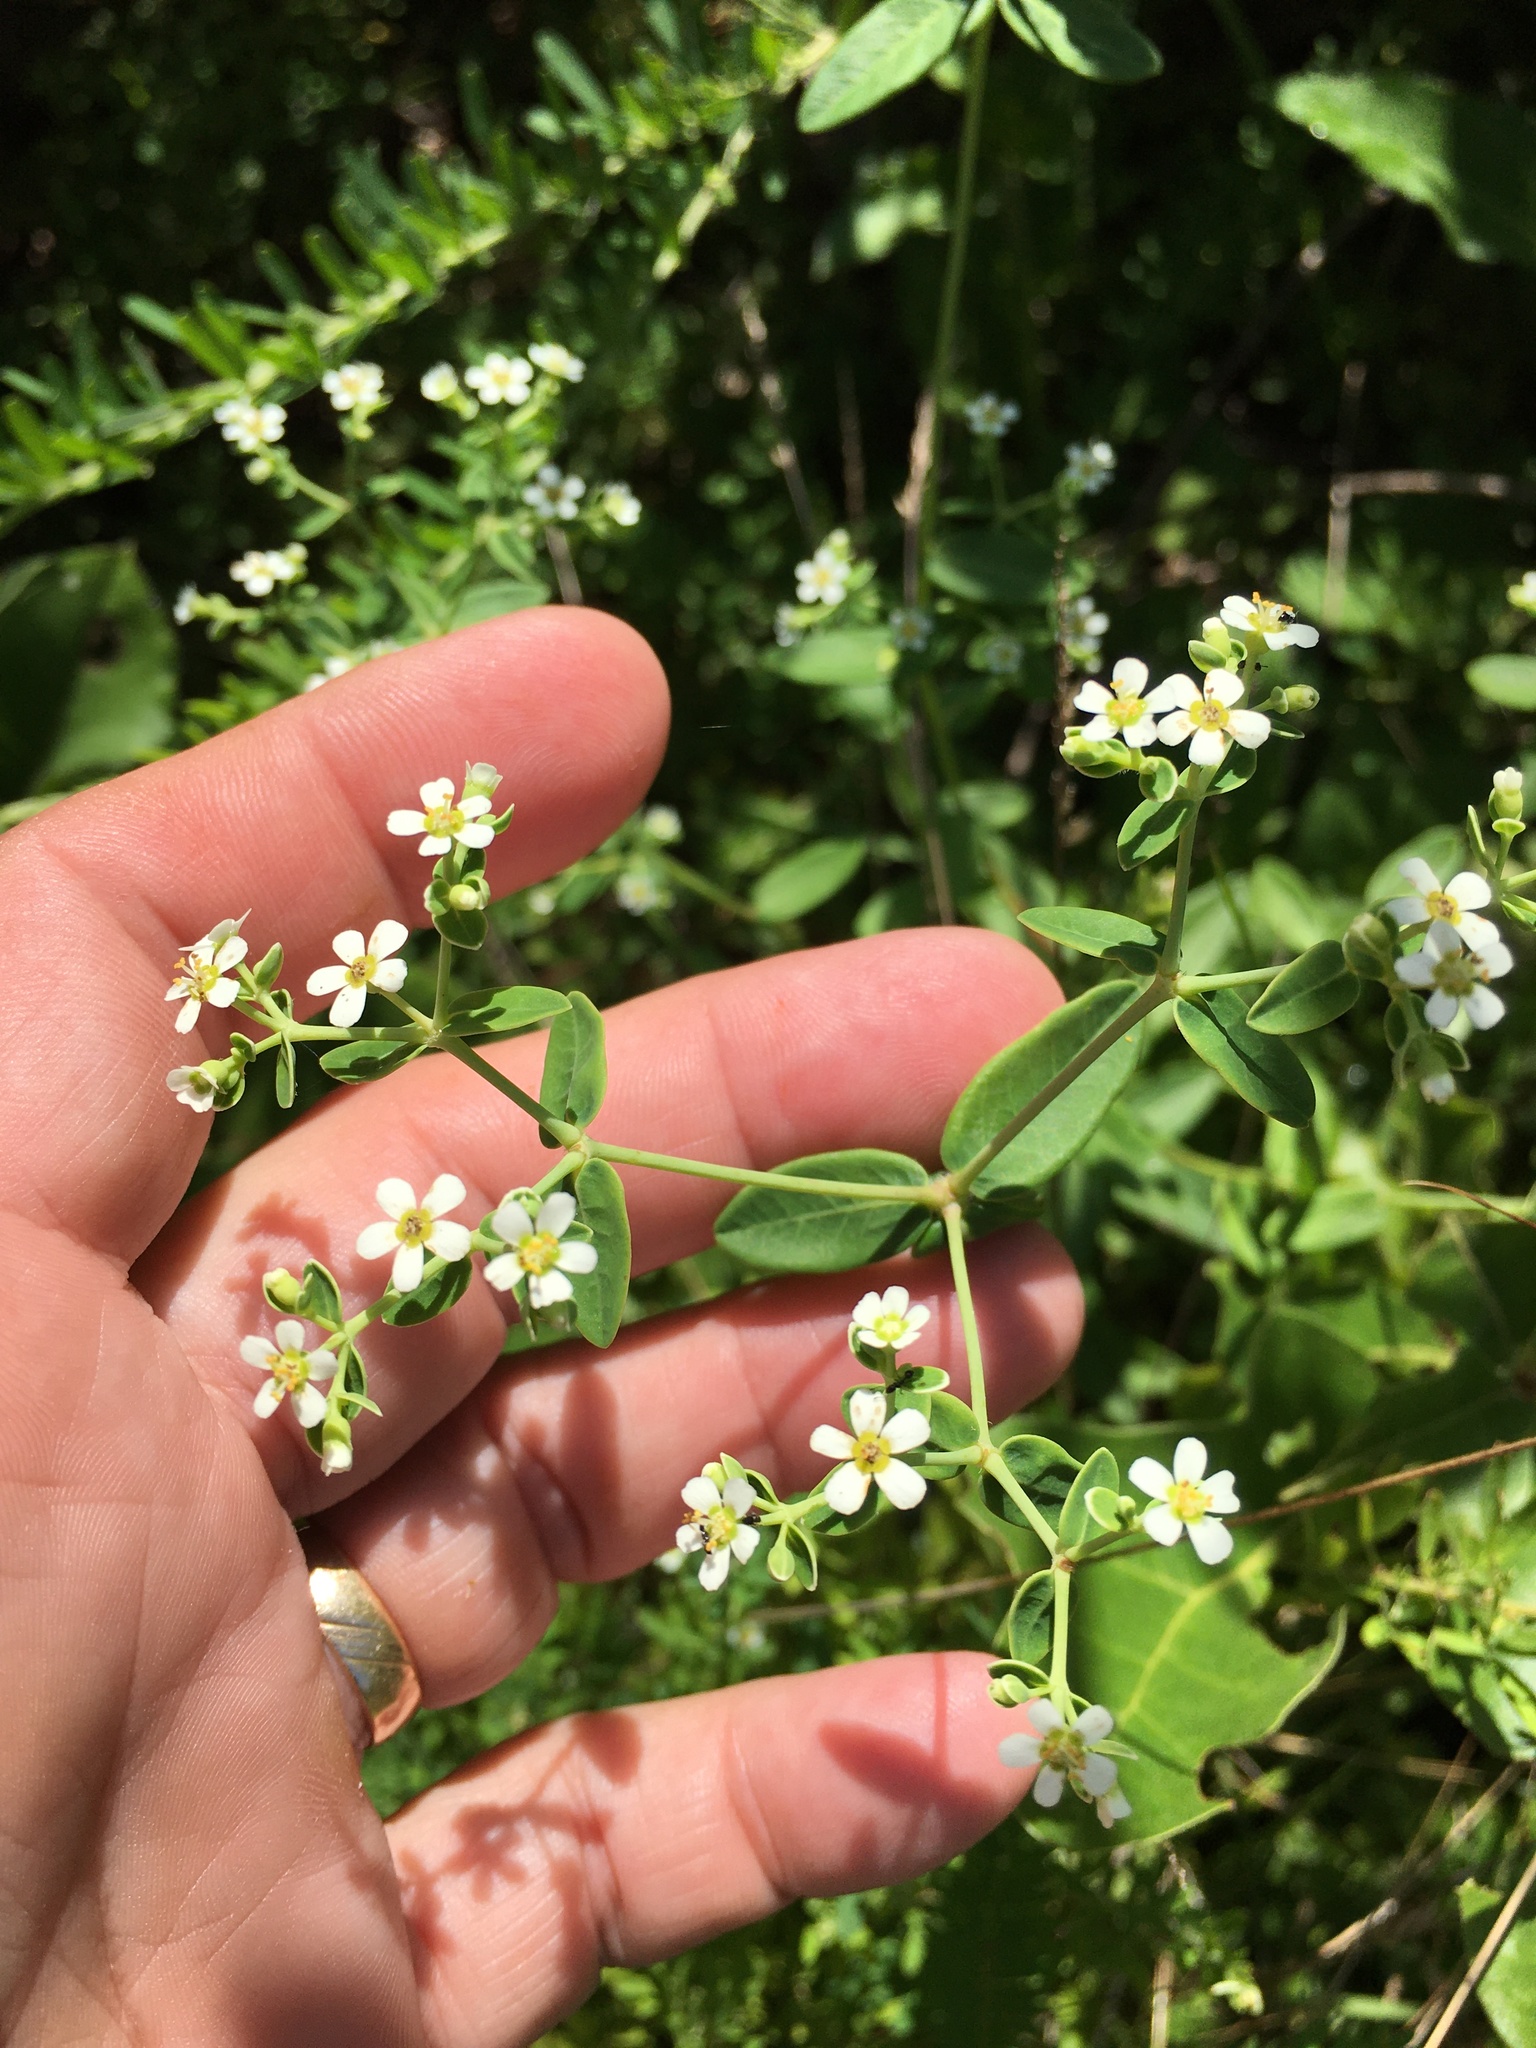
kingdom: Plantae
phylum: Tracheophyta
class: Magnoliopsida
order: Malpighiales
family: Euphorbiaceae
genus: Euphorbia
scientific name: Euphorbia corollata
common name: Flowering spurge
